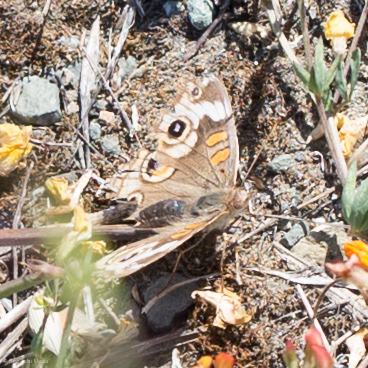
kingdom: Animalia
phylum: Arthropoda
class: Insecta
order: Lepidoptera
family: Nymphalidae
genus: Junonia
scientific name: Junonia grisea
